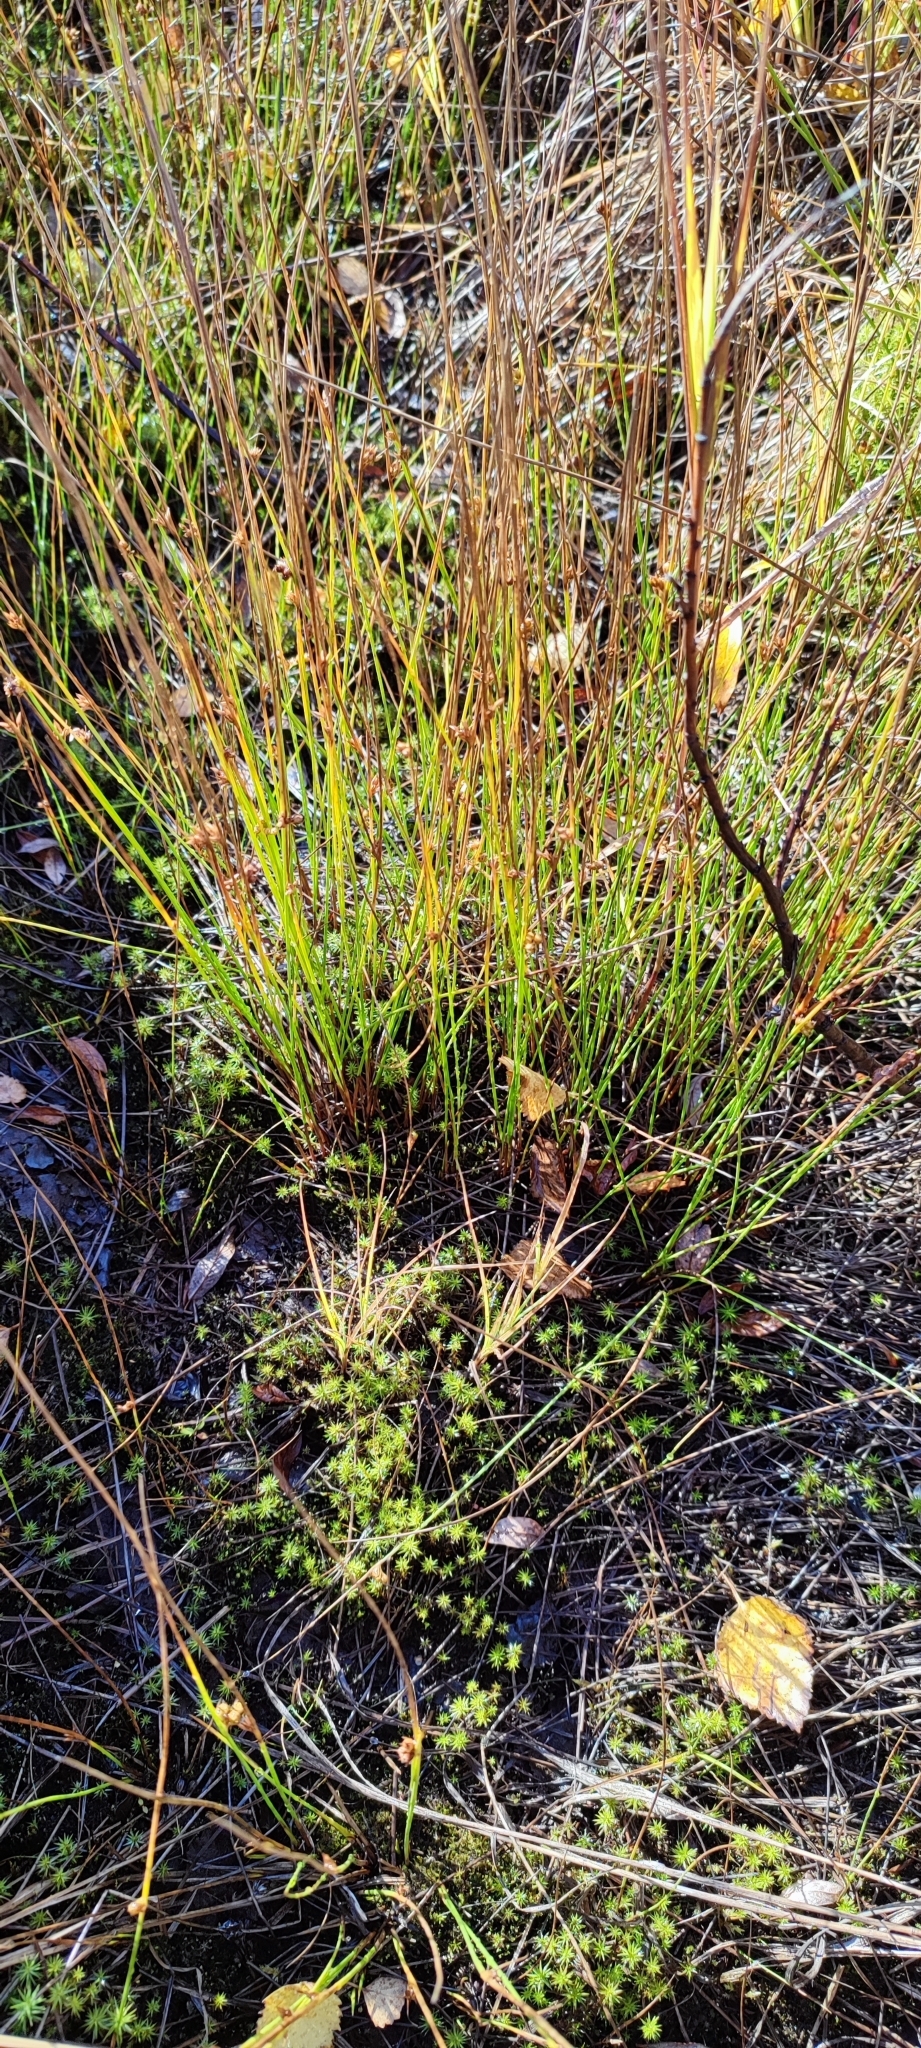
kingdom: Plantae
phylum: Tracheophyta
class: Liliopsida
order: Poales
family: Juncaceae
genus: Juncus
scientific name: Juncus filiformis
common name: Thread rush
